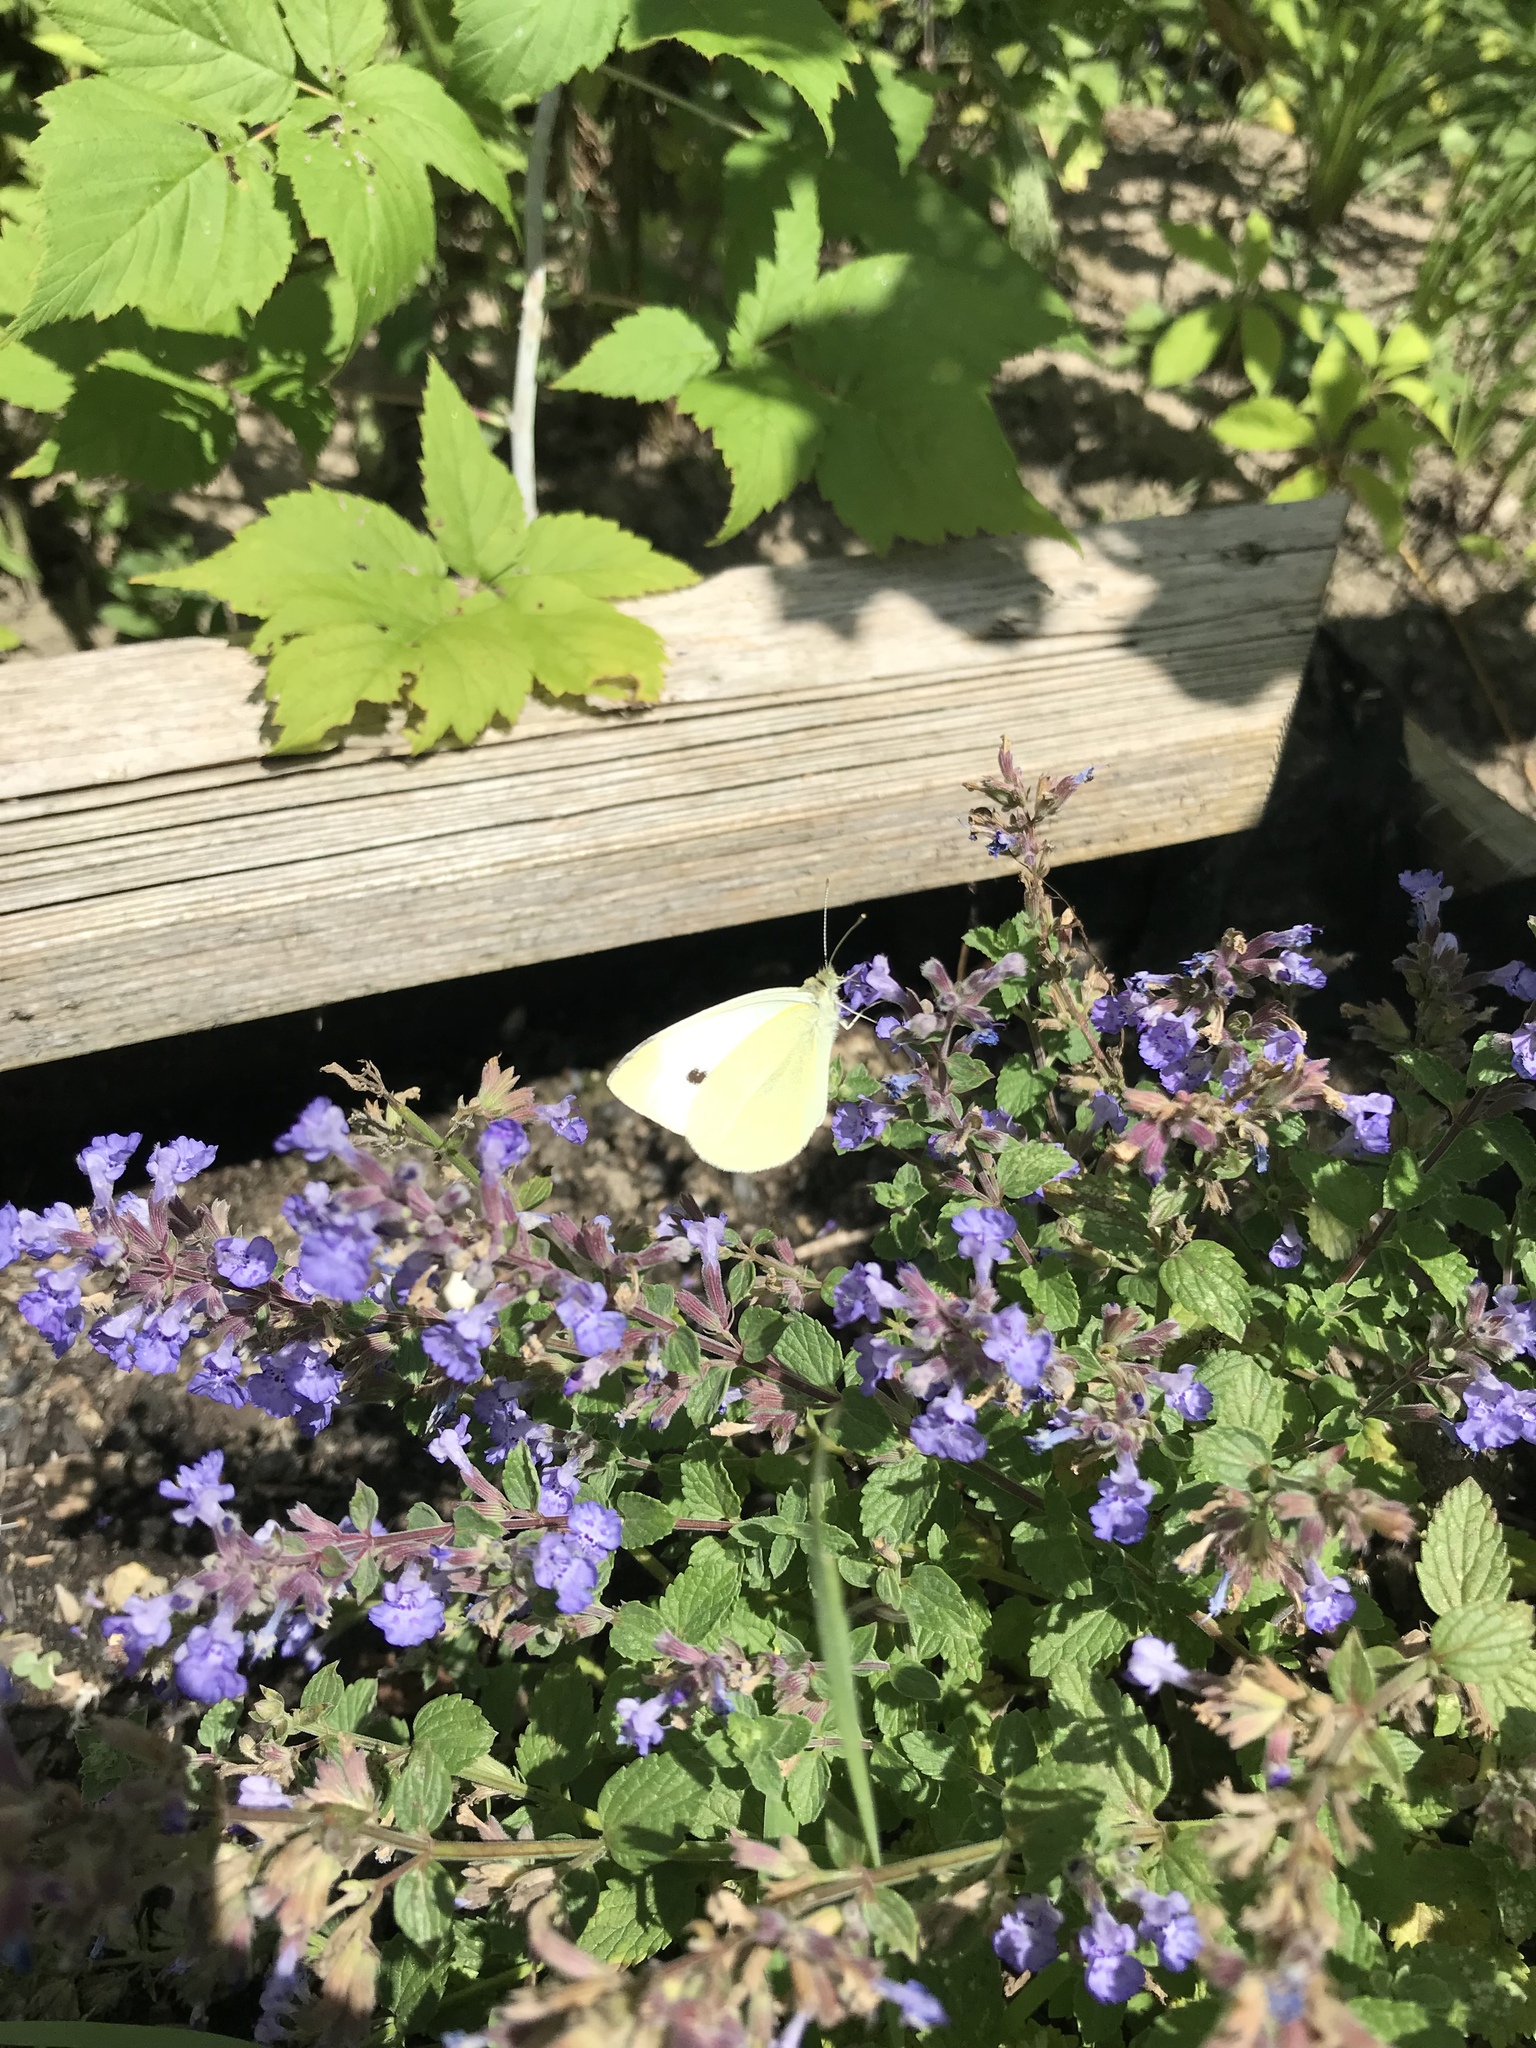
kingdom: Animalia
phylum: Arthropoda
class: Insecta
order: Lepidoptera
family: Pieridae
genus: Pieris
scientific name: Pieris rapae
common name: Small white
